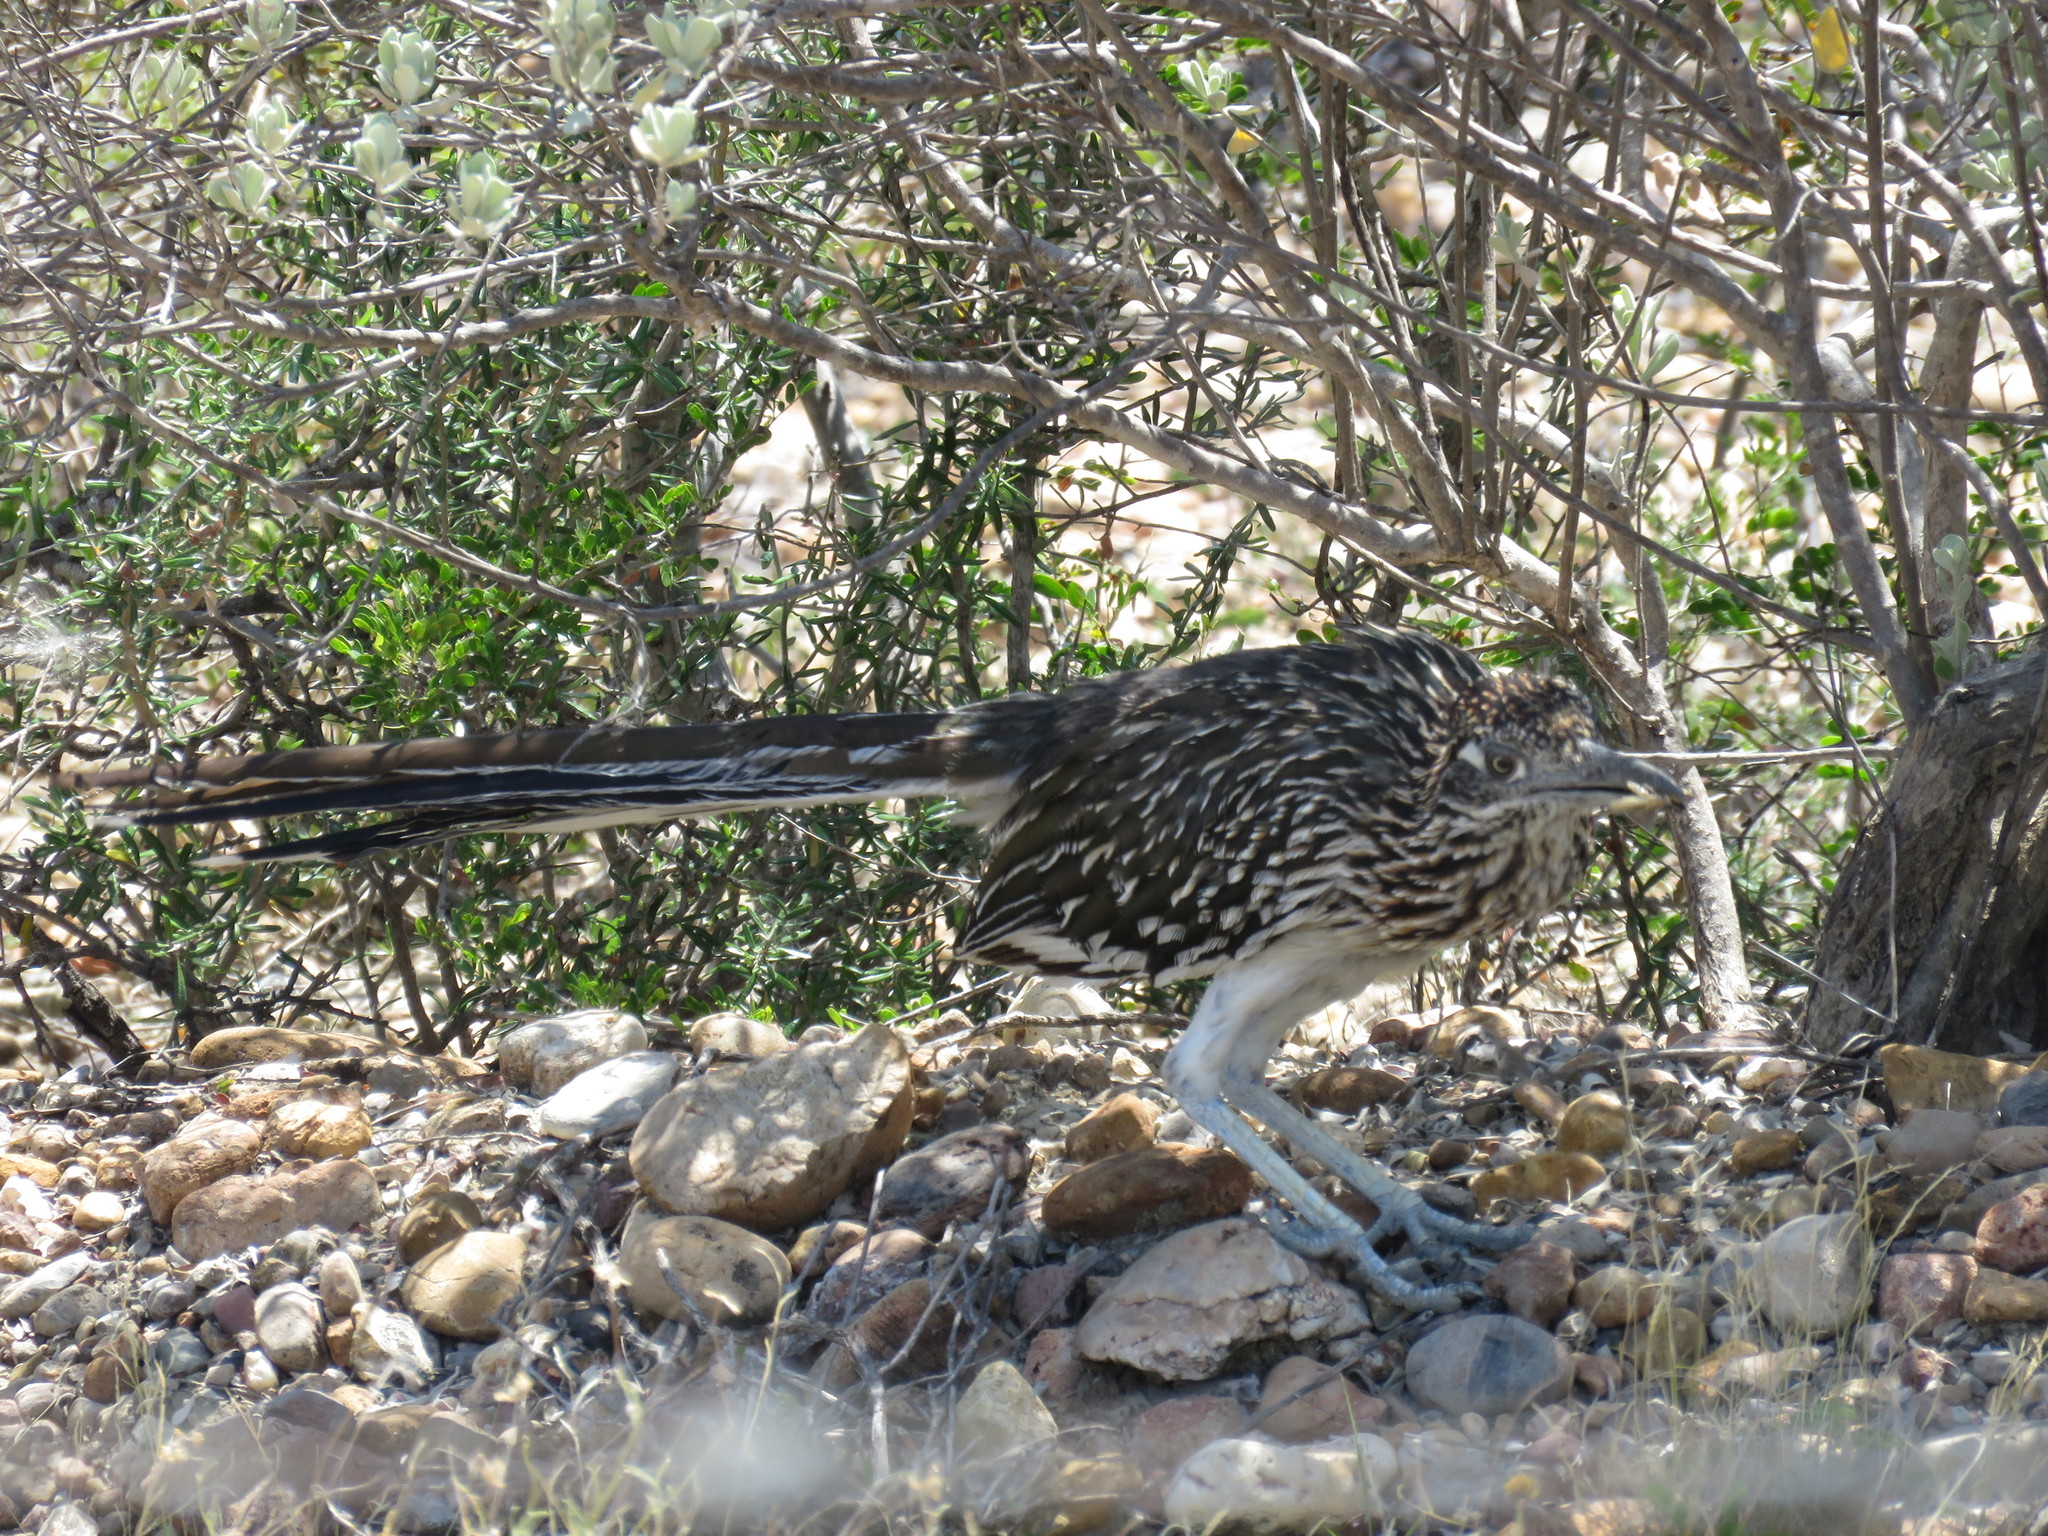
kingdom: Animalia
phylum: Chordata
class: Aves
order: Cuculiformes
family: Cuculidae
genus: Geococcyx
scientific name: Geococcyx californianus
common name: Greater roadrunner
